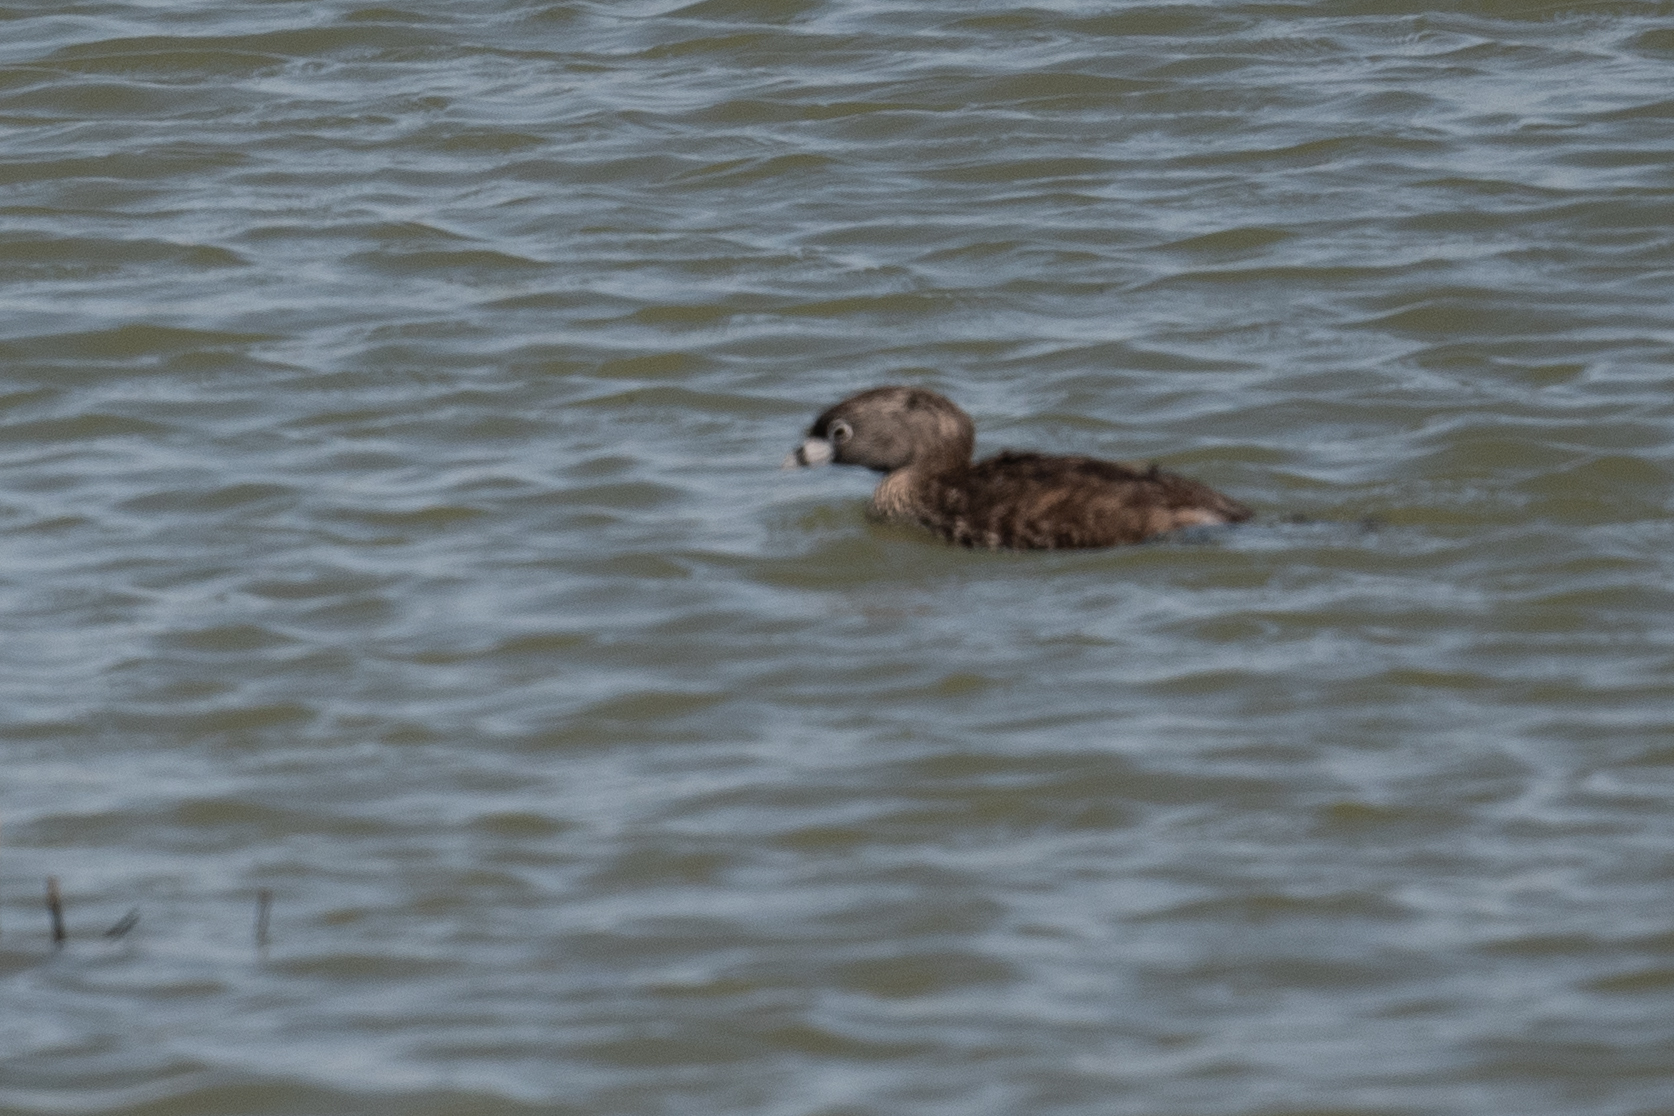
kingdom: Animalia
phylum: Chordata
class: Aves
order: Podicipediformes
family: Podicipedidae
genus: Podilymbus
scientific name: Podilymbus podiceps
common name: Pied-billed grebe
